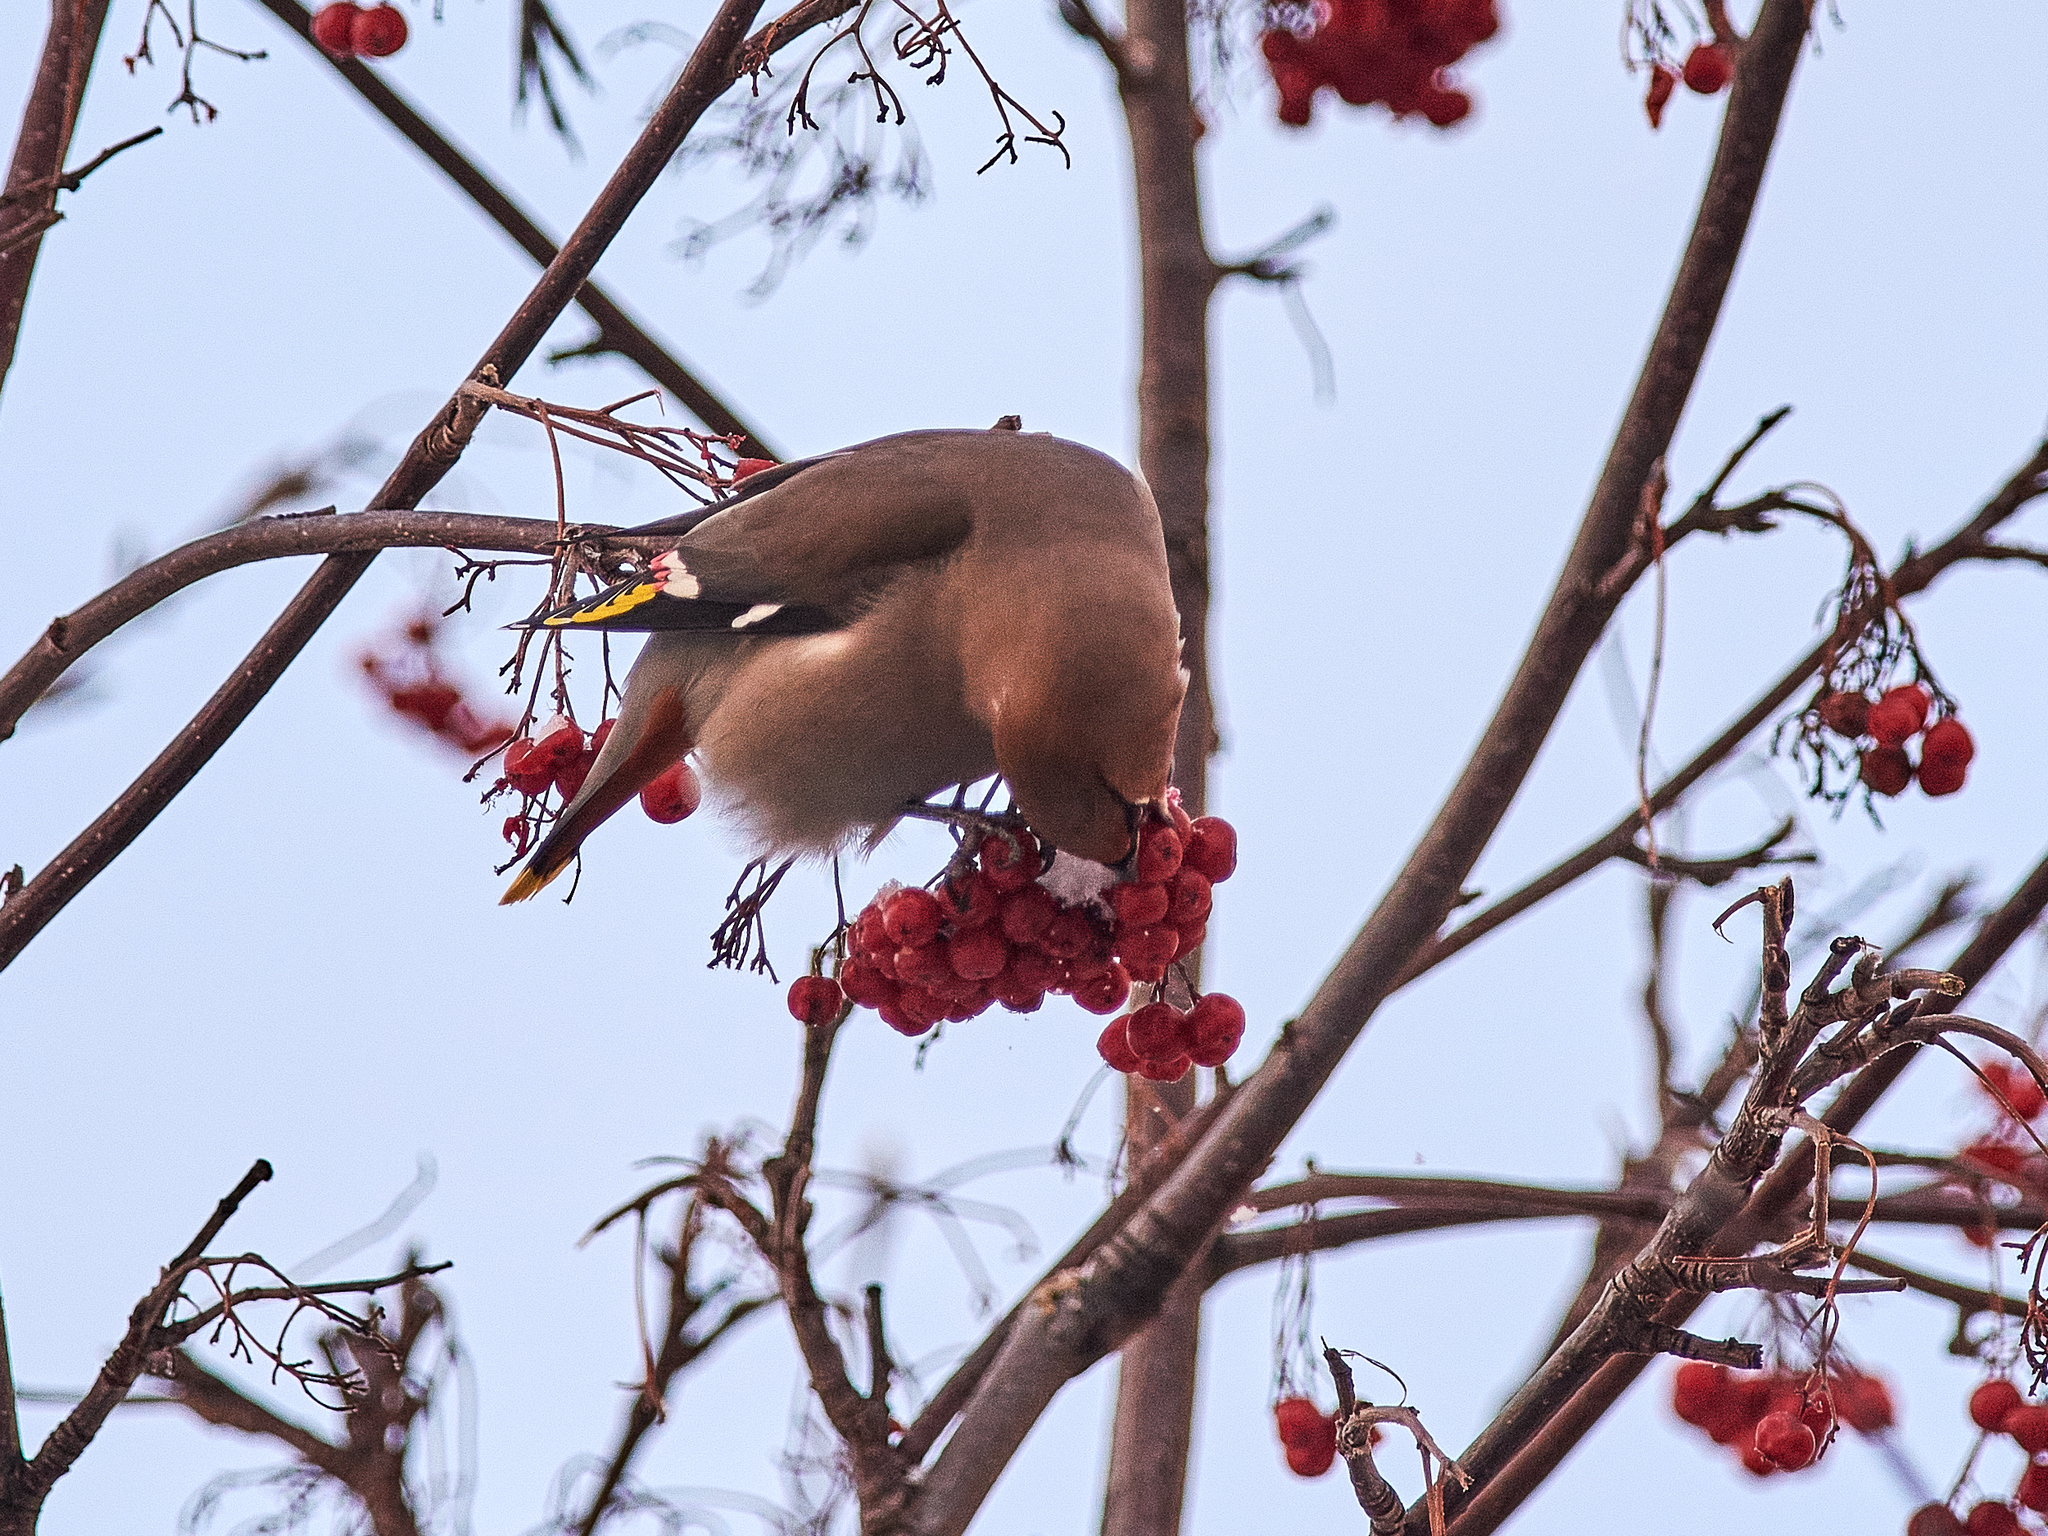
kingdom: Animalia
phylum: Chordata
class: Aves
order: Passeriformes
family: Bombycillidae
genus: Bombycilla
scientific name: Bombycilla garrulus
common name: Bohemian waxwing
